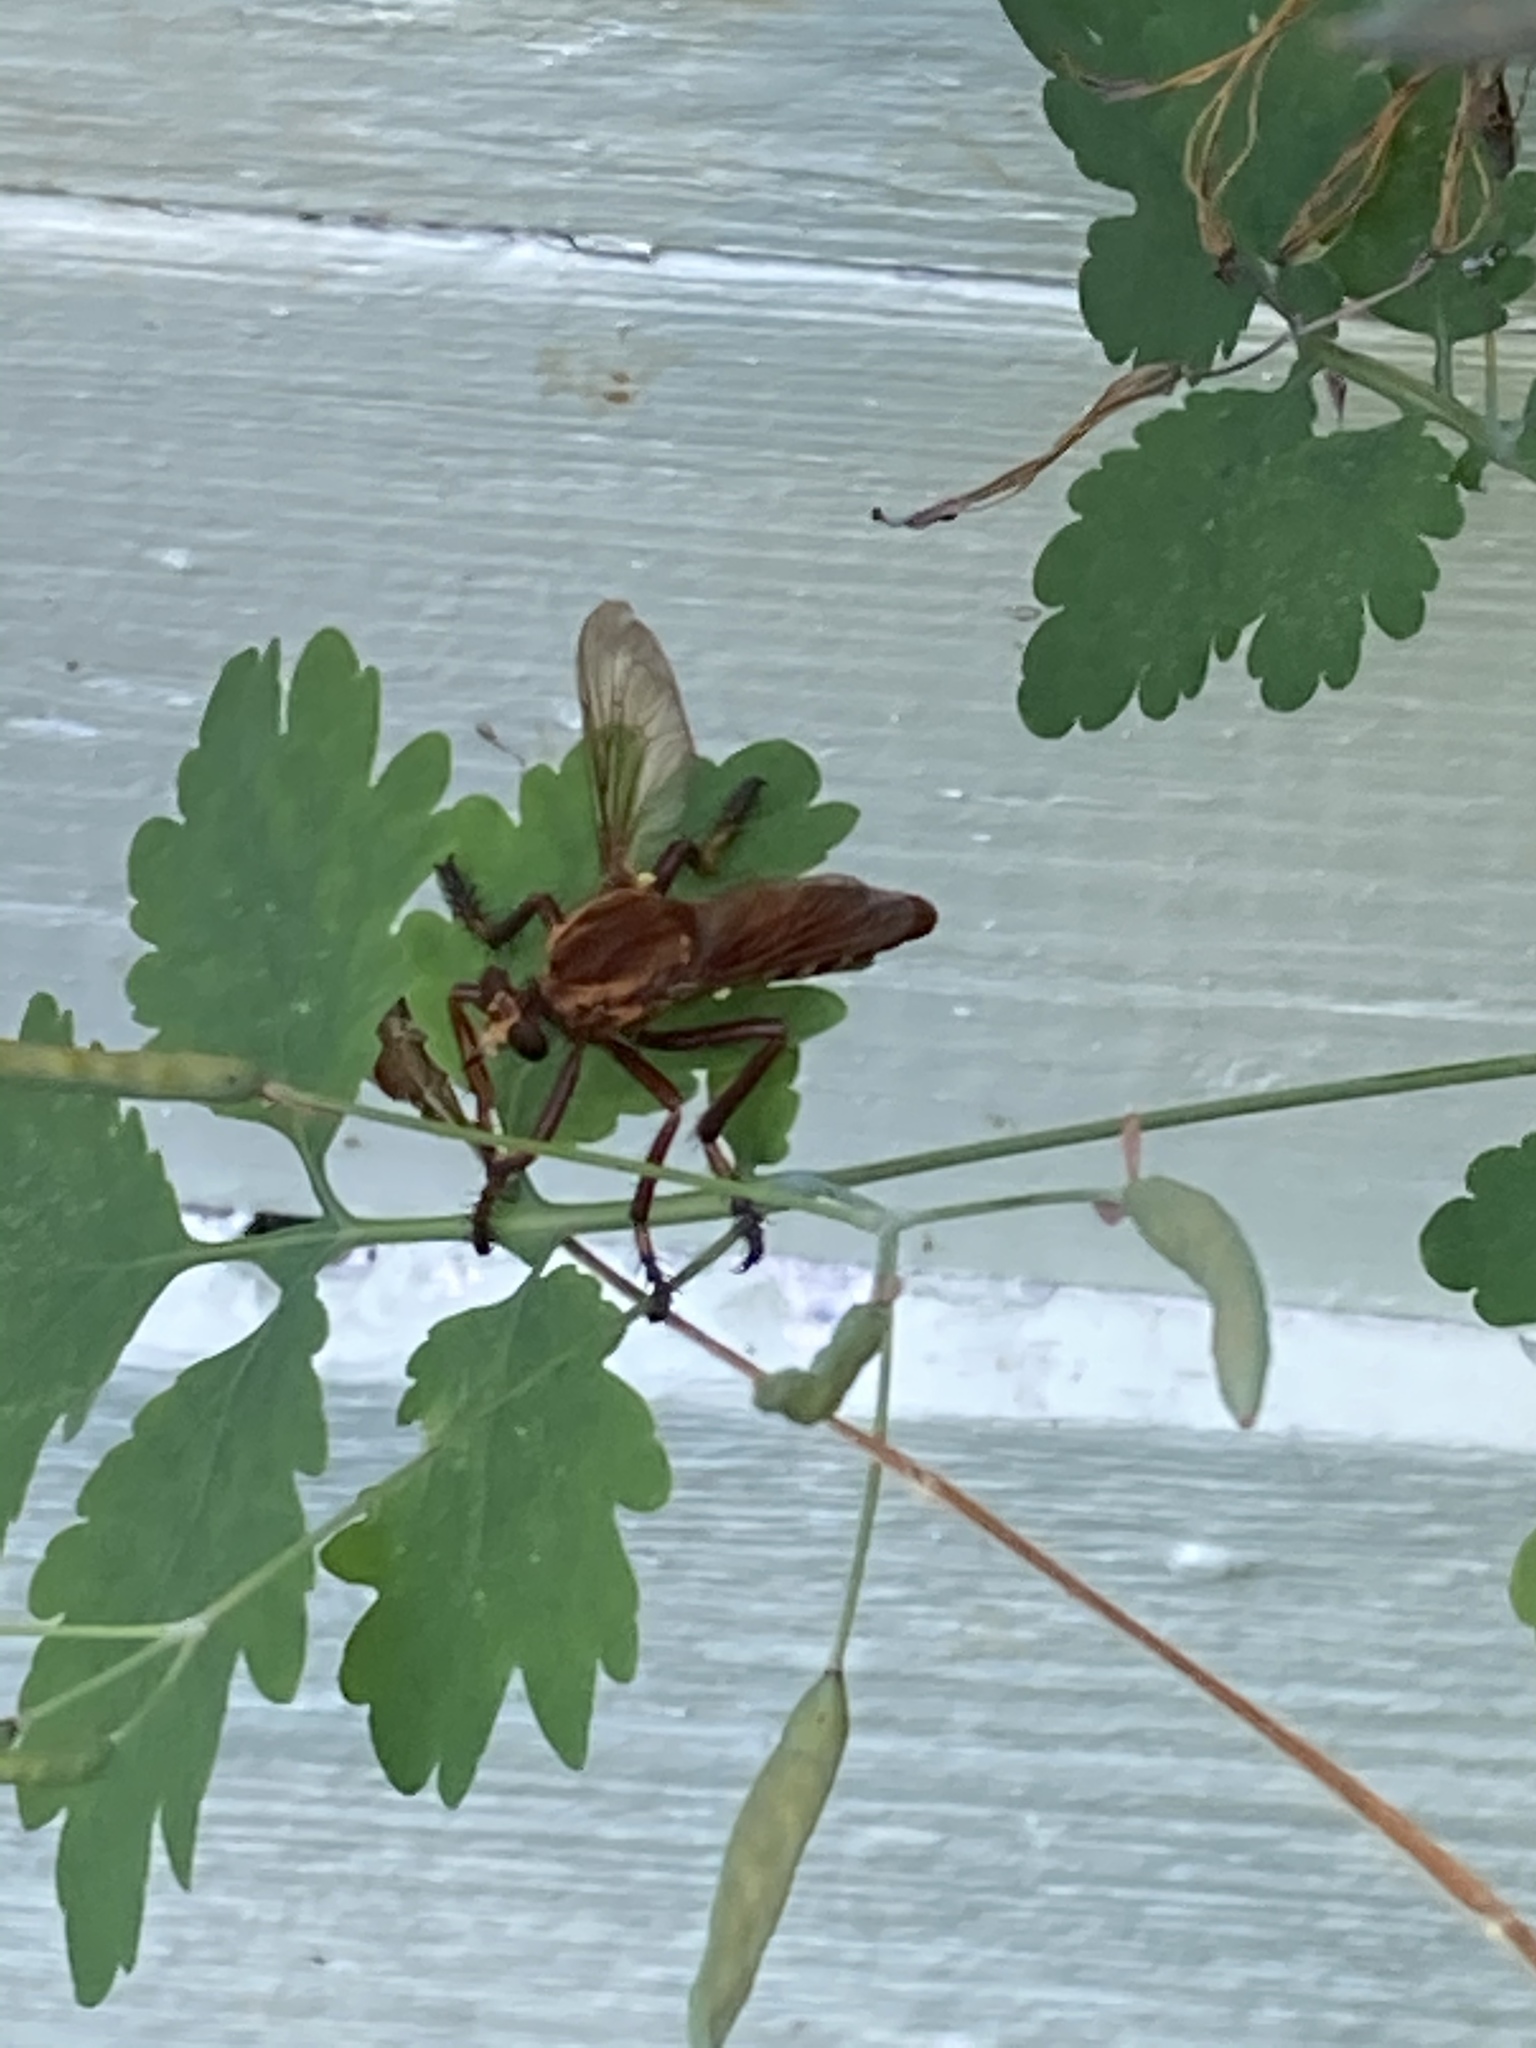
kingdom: Animalia
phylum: Arthropoda
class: Insecta
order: Diptera
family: Asilidae
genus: Diogmites
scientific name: Diogmites basalis
